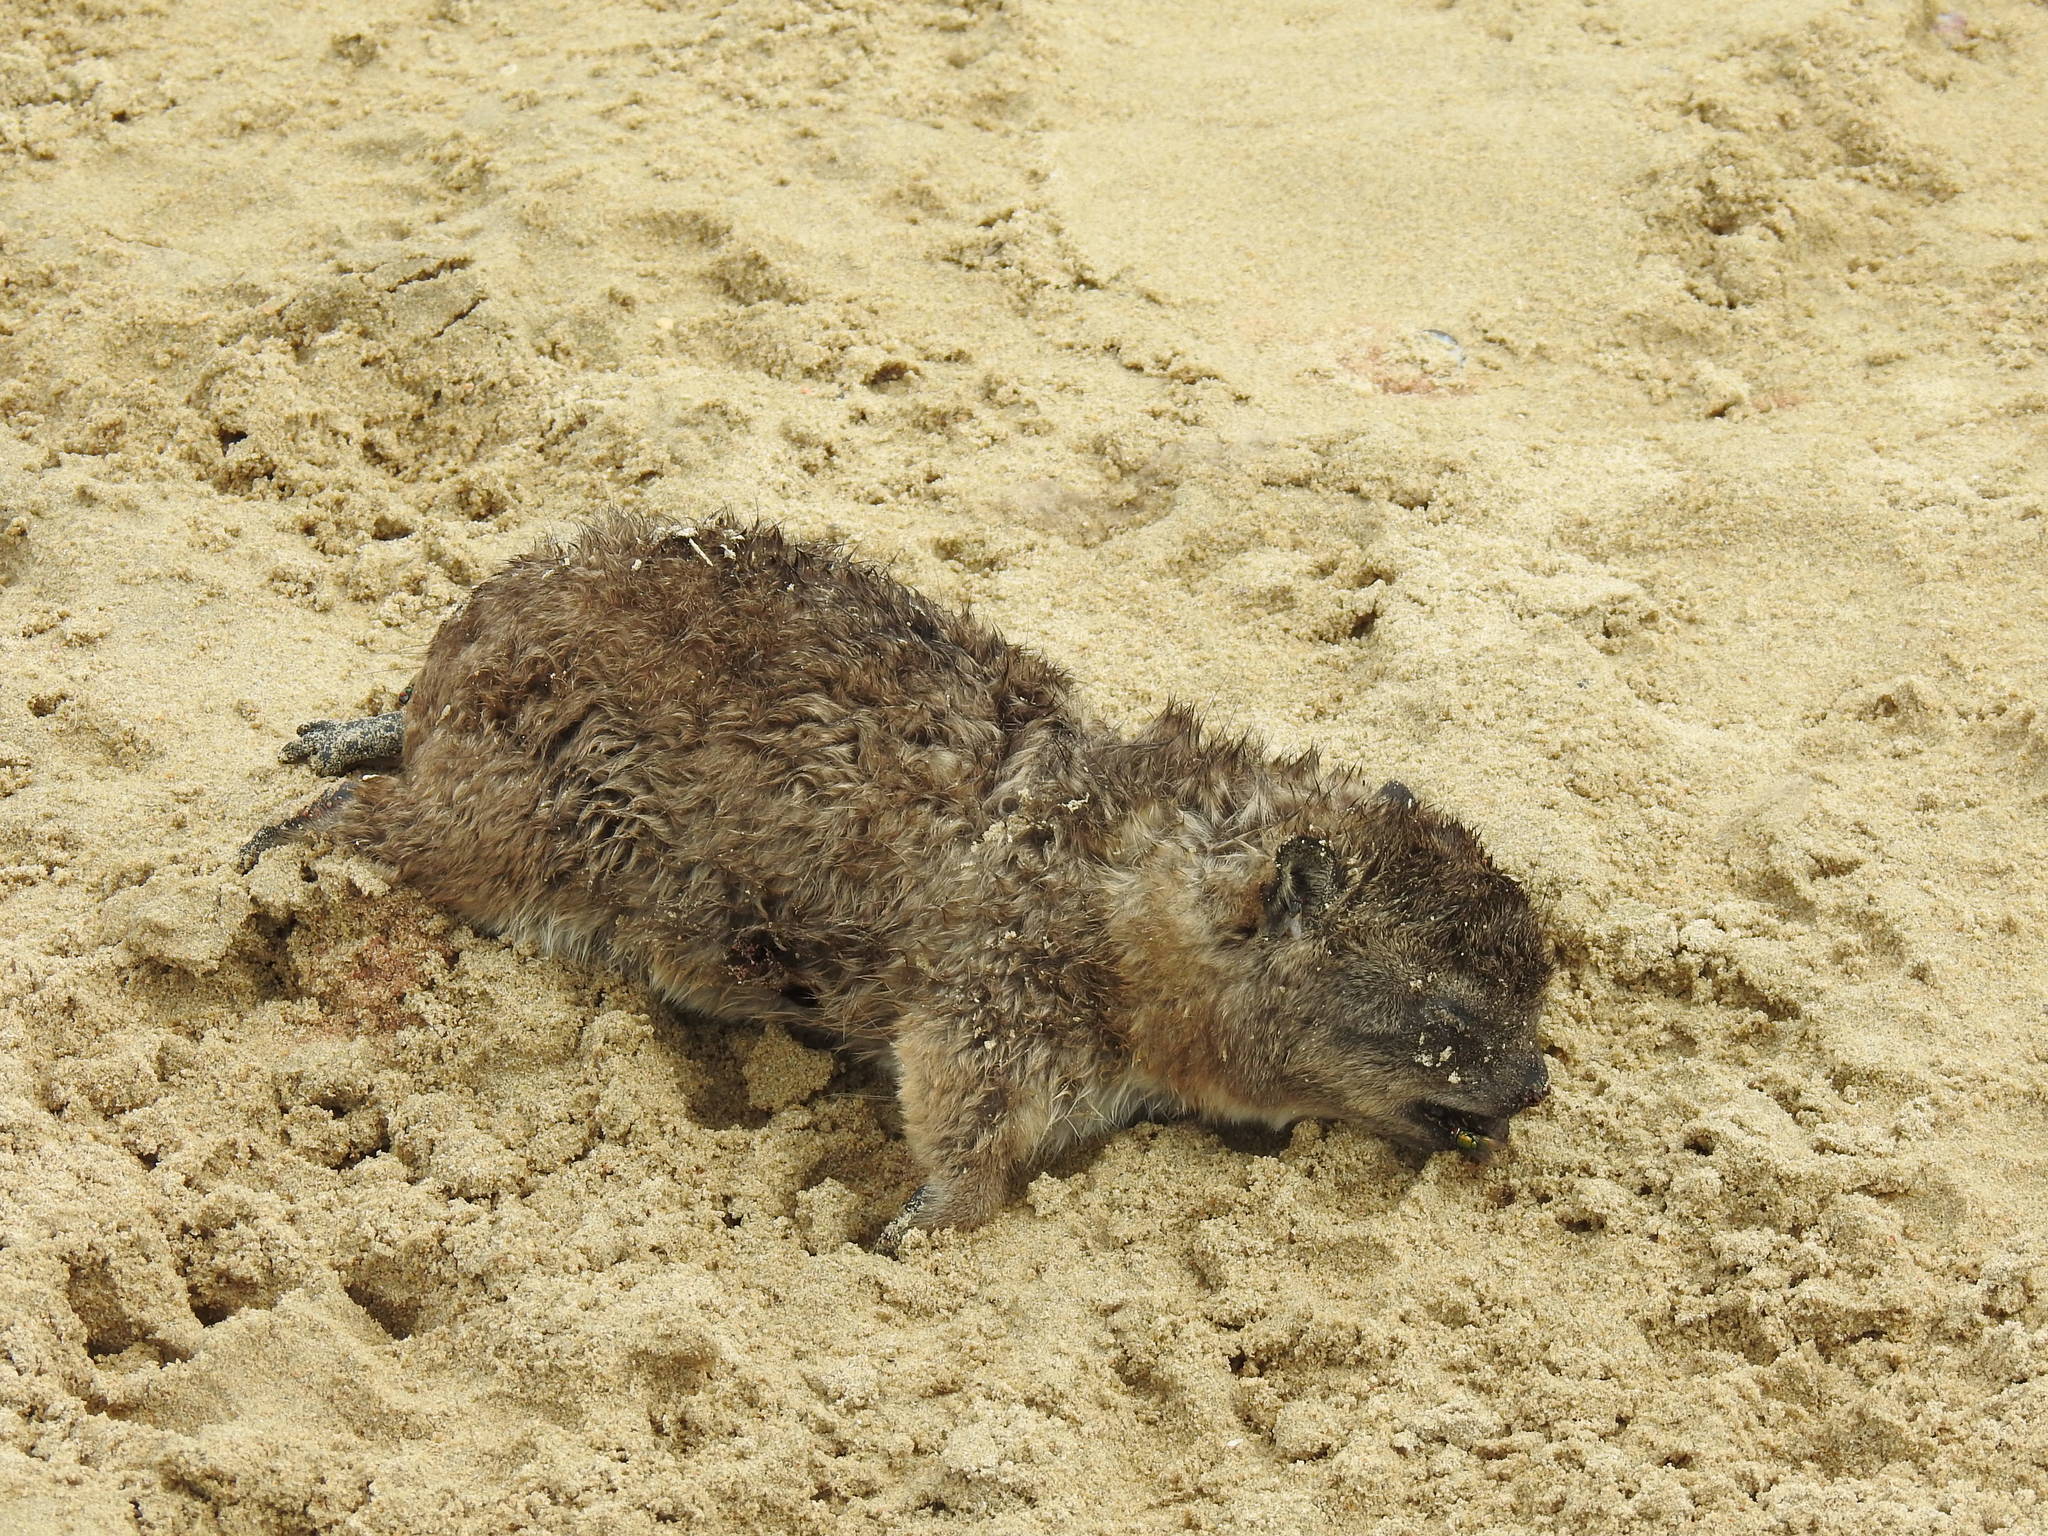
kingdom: Animalia
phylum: Chordata
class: Mammalia
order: Hyracoidea
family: Procaviidae
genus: Procavia
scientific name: Procavia capensis
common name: Rock hyrax
